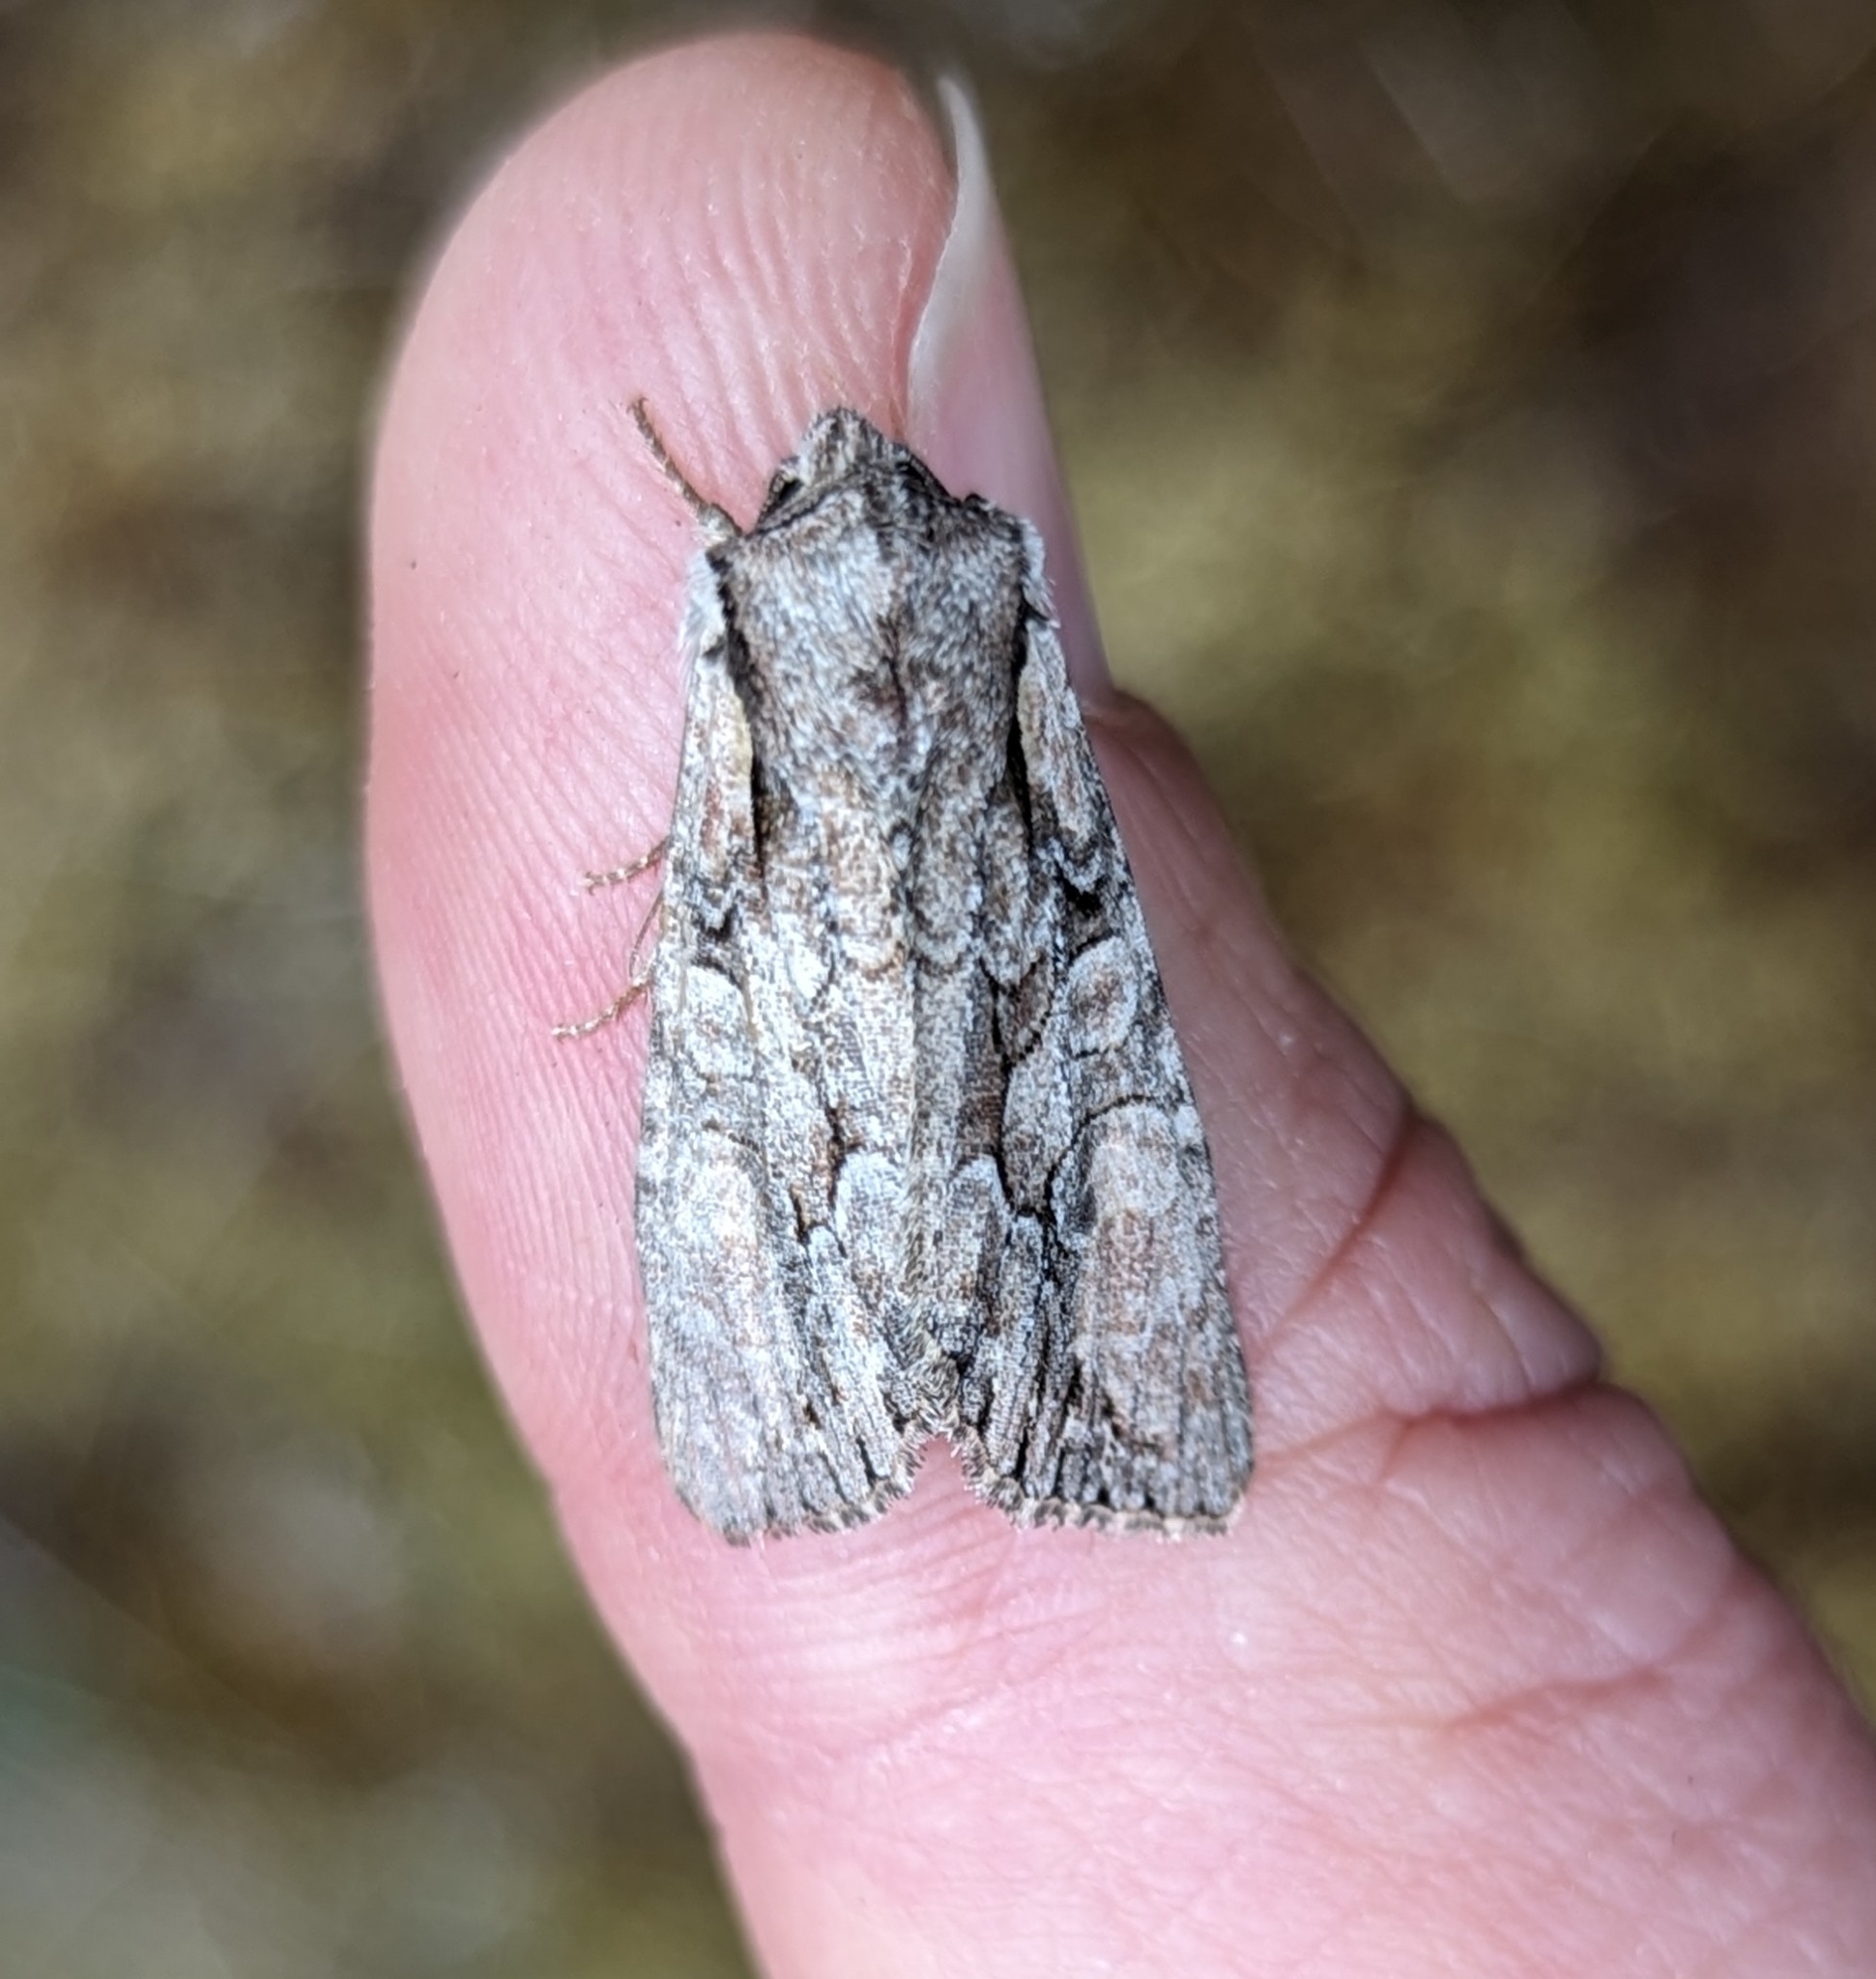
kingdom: Animalia
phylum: Arthropoda
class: Insecta
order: Lepidoptera
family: Noctuidae
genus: Lacanobia
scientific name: Lacanobia subjuncta
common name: Speckled cutworm moth
